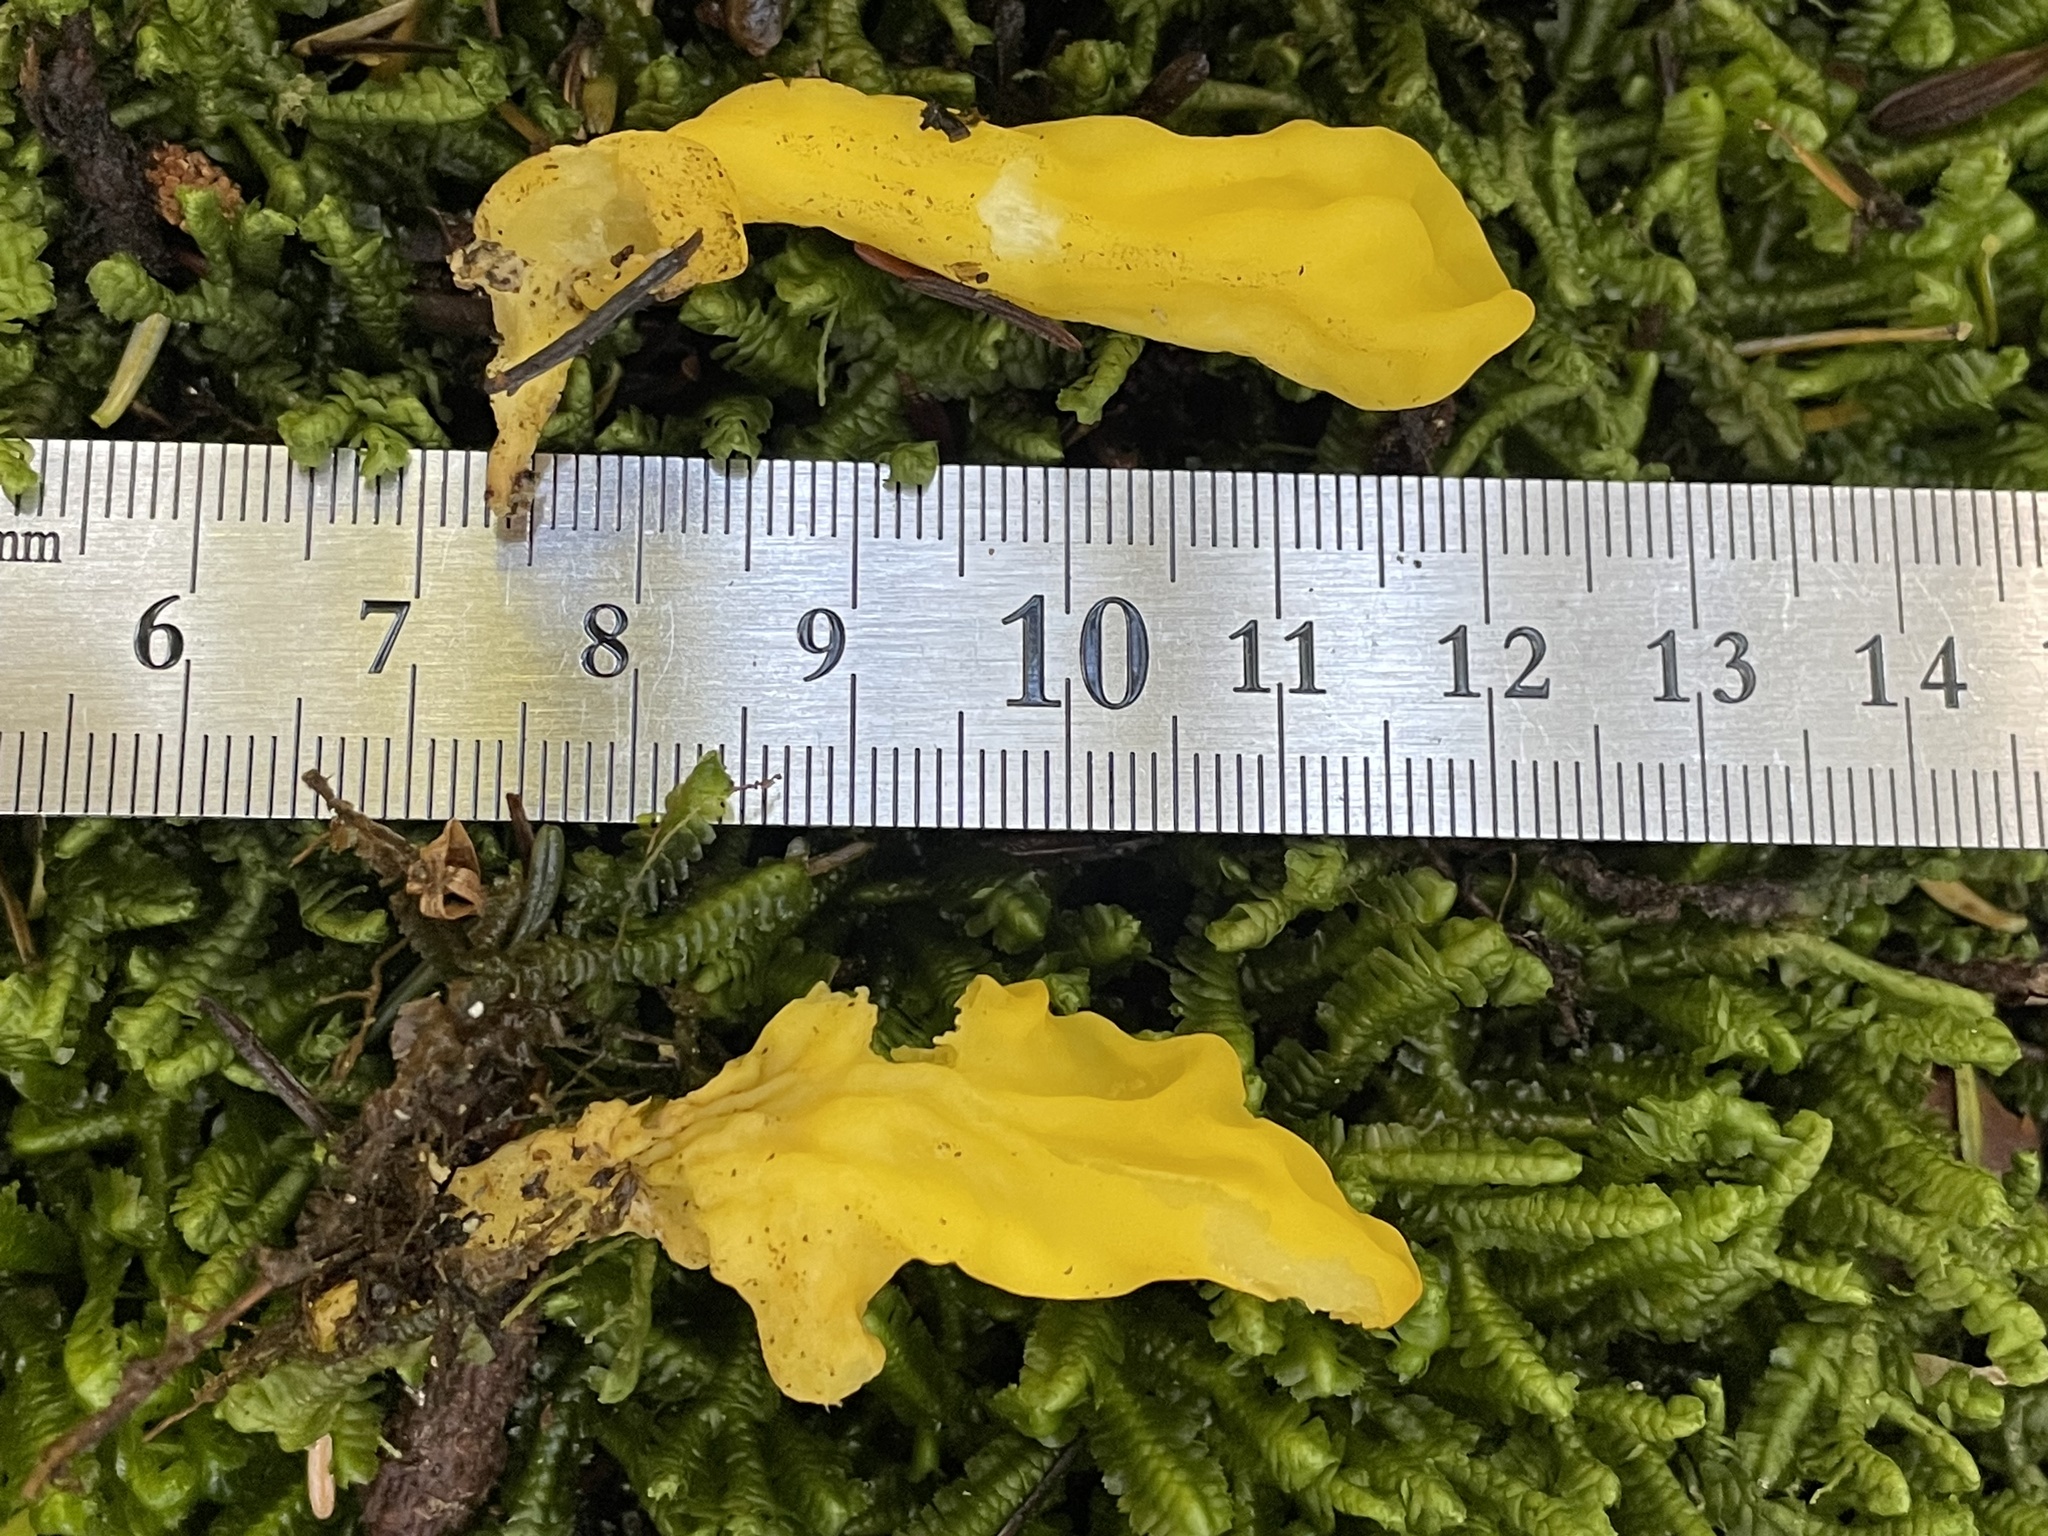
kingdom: Fungi
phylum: Ascomycota
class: Neolectomycetes
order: Neolectales
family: Neolectaceae
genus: Neolecta
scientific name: Neolecta irregularis
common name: Irregular earth tongue
